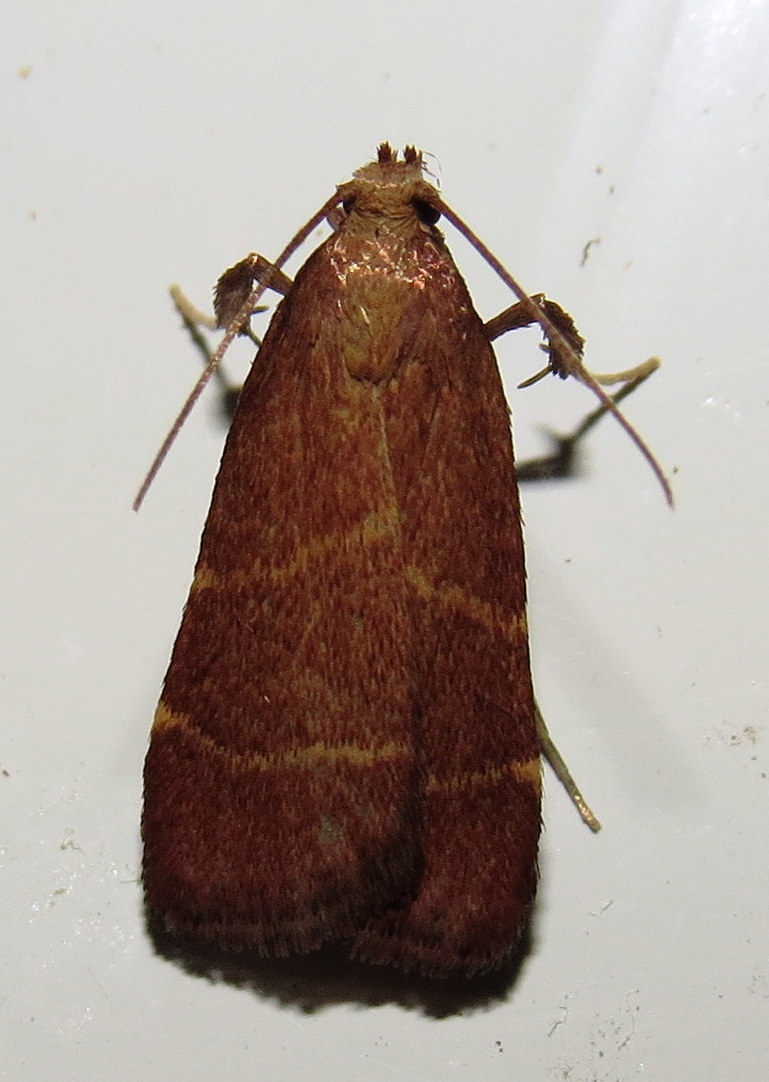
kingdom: Animalia
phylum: Arthropoda
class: Insecta
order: Lepidoptera
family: Pyralidae
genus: Arta
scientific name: Arta statalis
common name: Posturing arta moth
